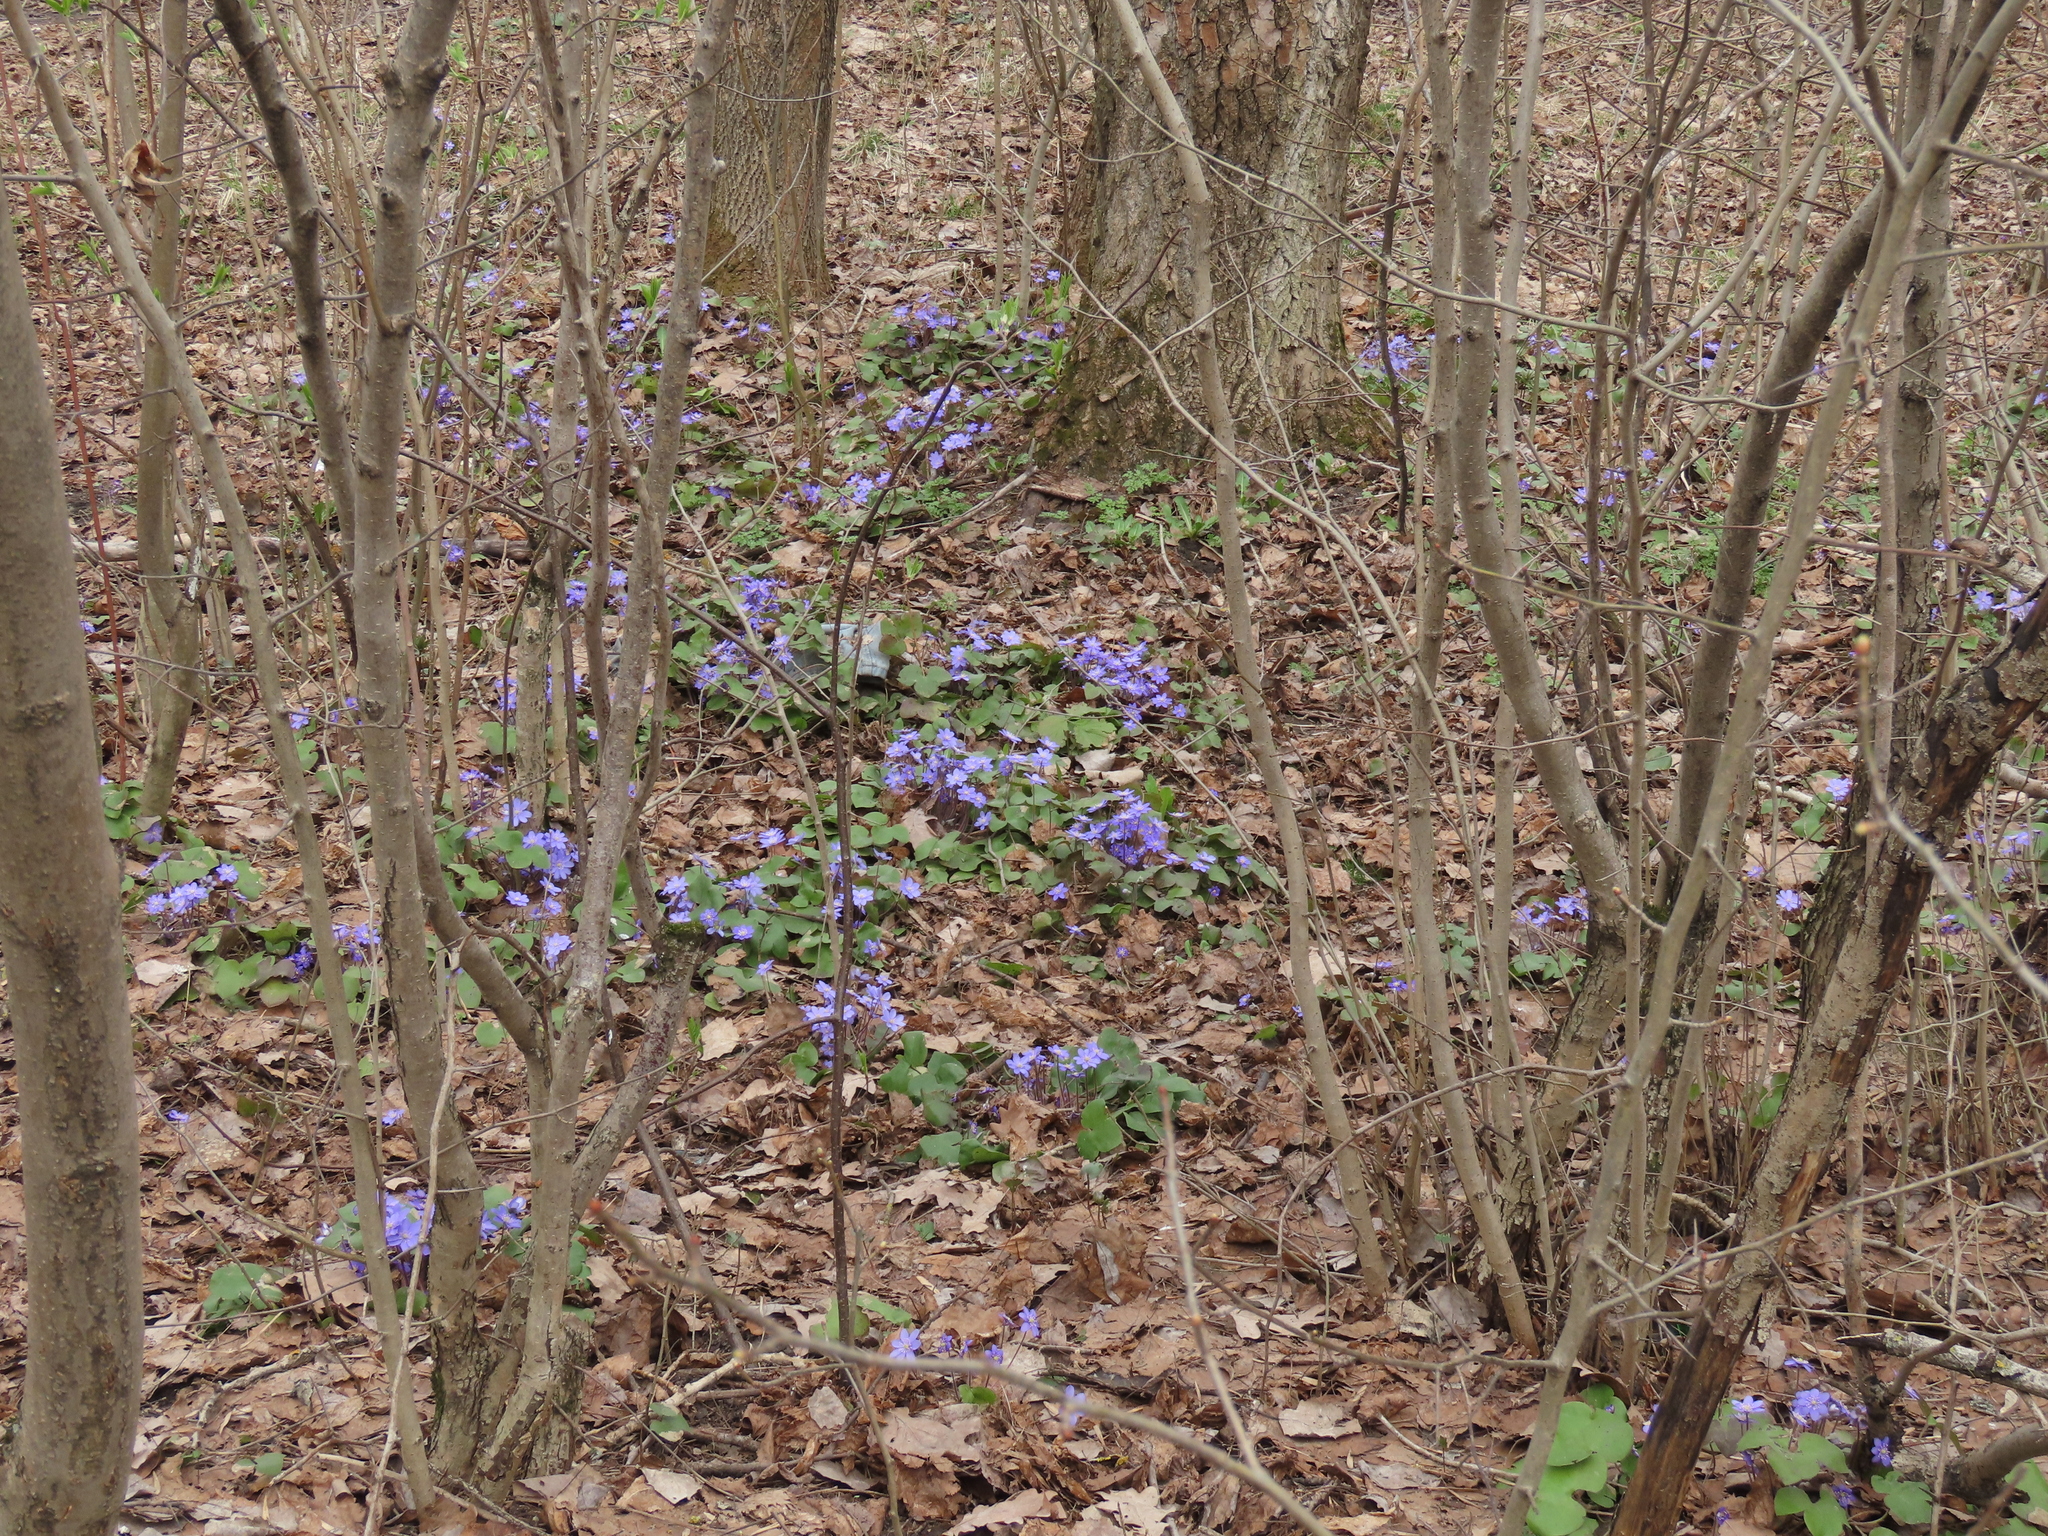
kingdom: Plantae
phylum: Tracheophyta
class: Magnoliopsida
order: Ranunculales
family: Ranunculaceae
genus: Hepatica
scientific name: Hepatica nobilis
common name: Liverleaf
